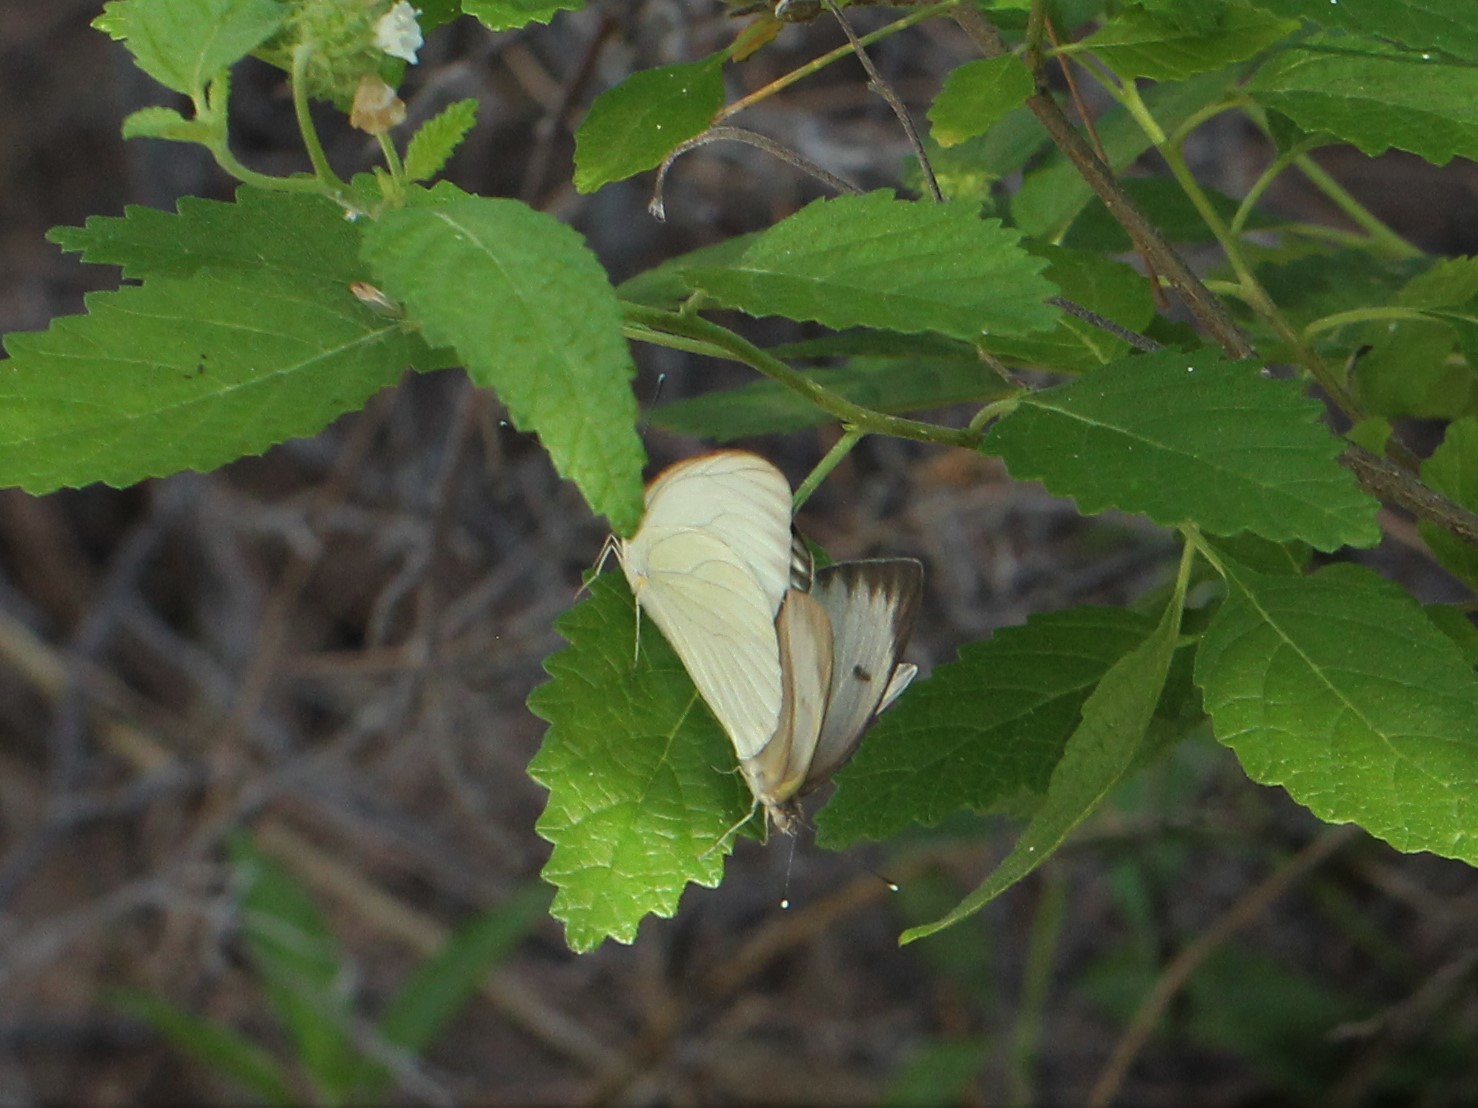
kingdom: Animalia
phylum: Arthropoda
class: Insecta
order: Lepidoptera
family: Pieridae
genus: Ascia
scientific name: Ascia monuste
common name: Great southern white
